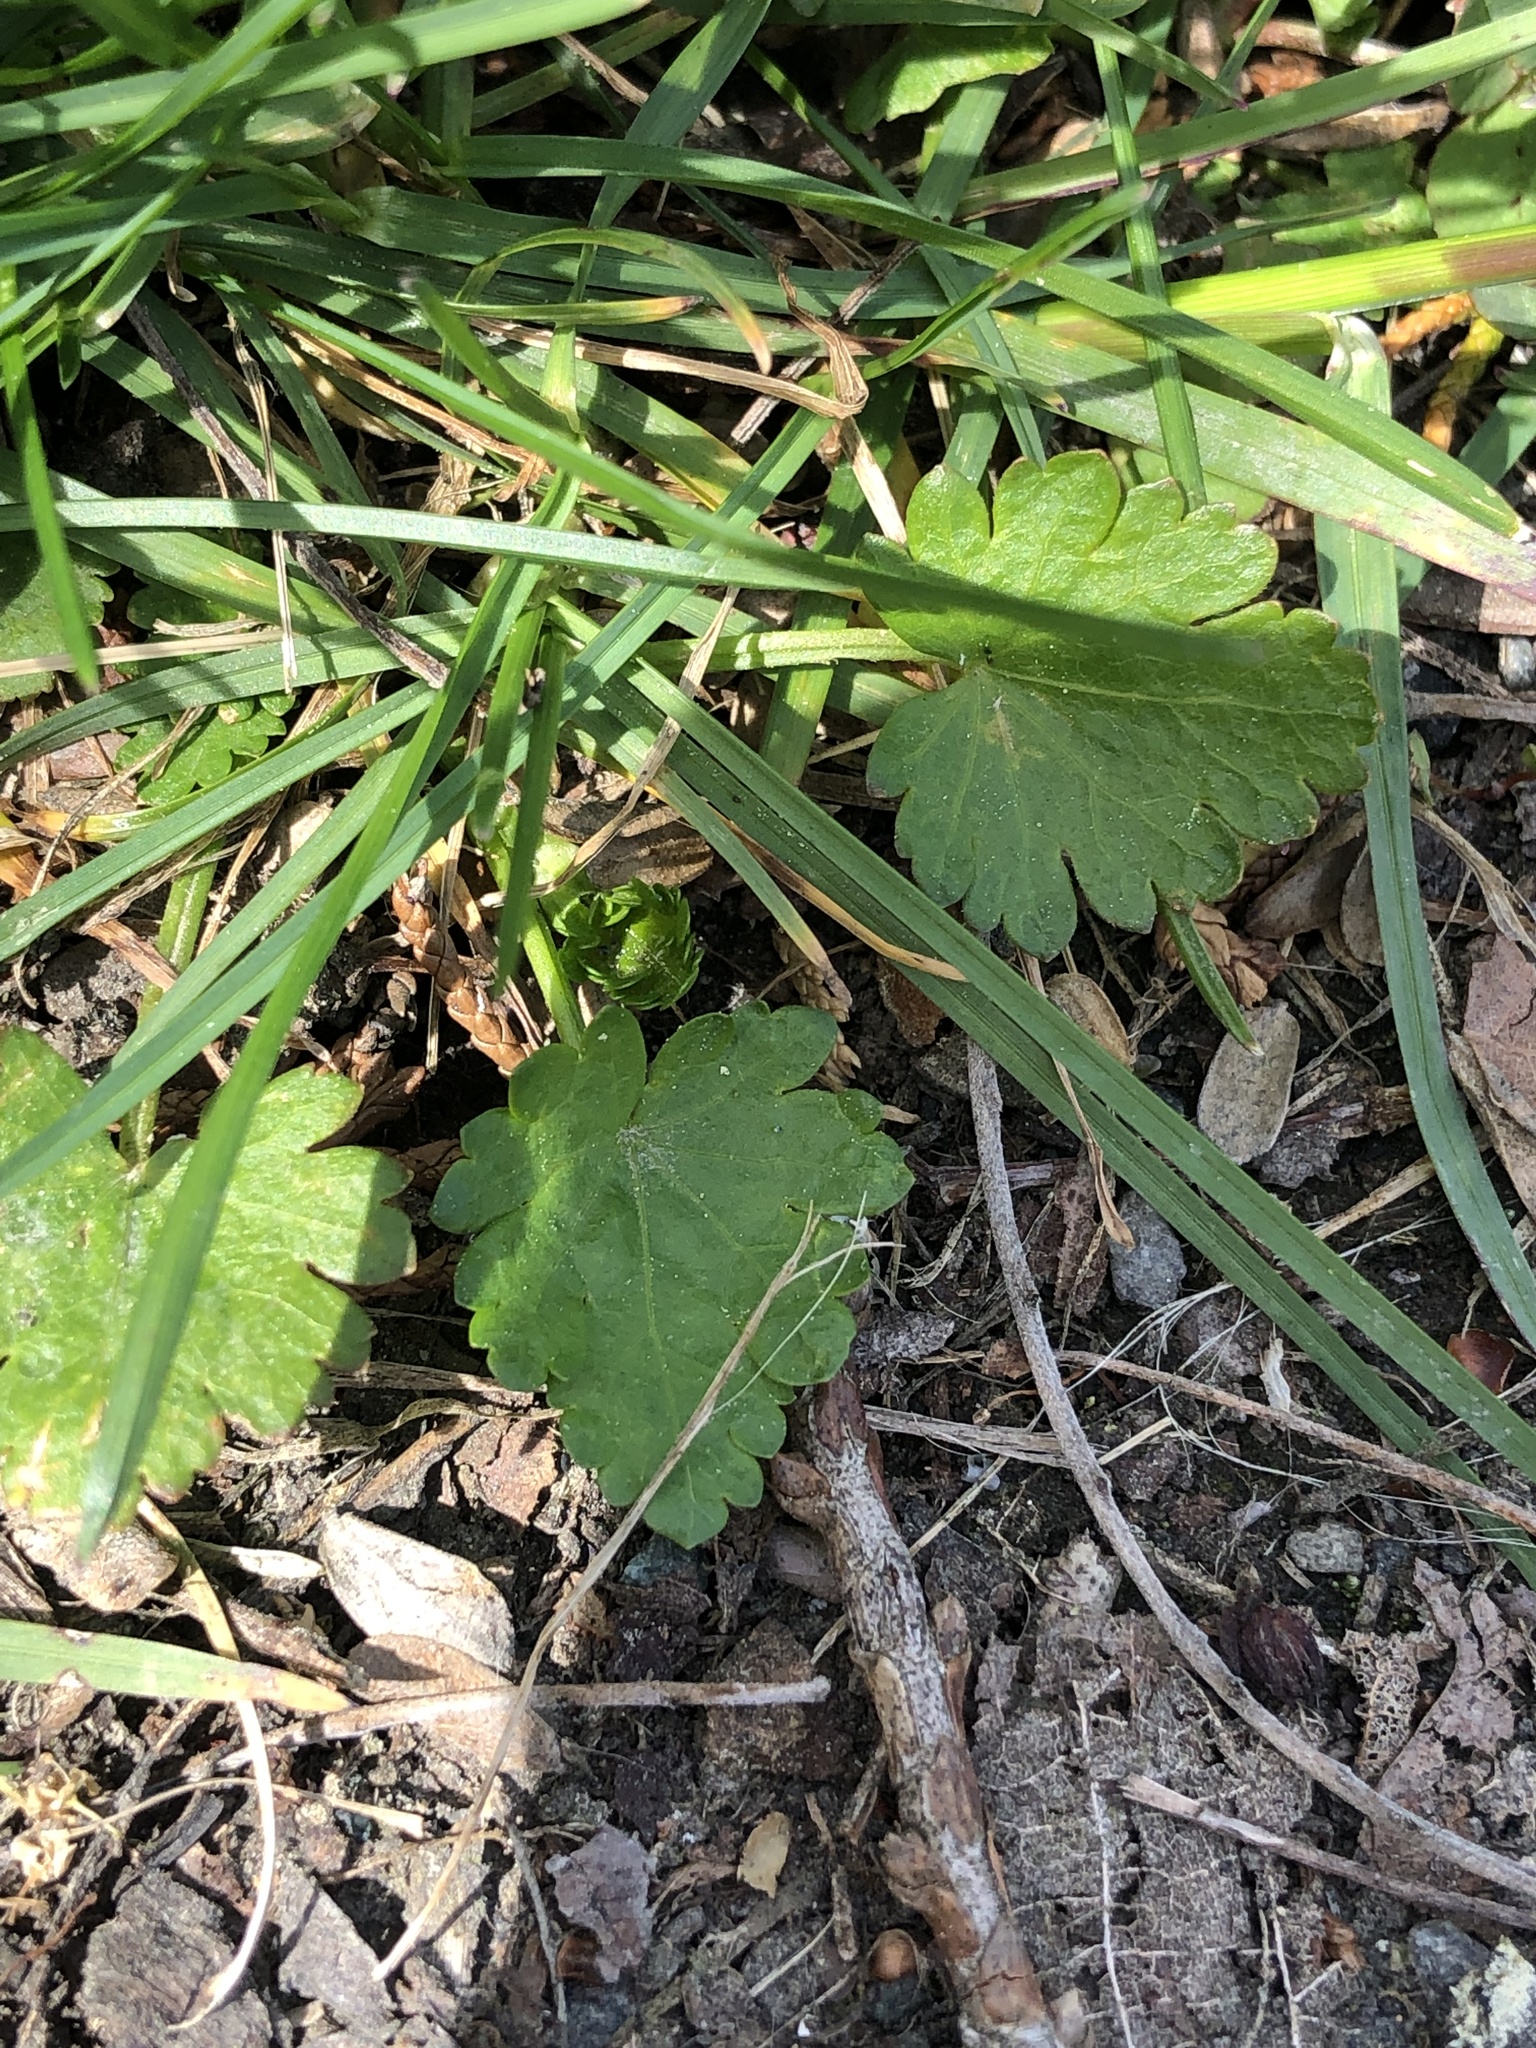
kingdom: Plantae
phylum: Tracheophyta
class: Magnoliopsida
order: Malvales
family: Malvaceae
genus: Modiola
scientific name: Modiola caroliniana
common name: Carolina bristlemallow
